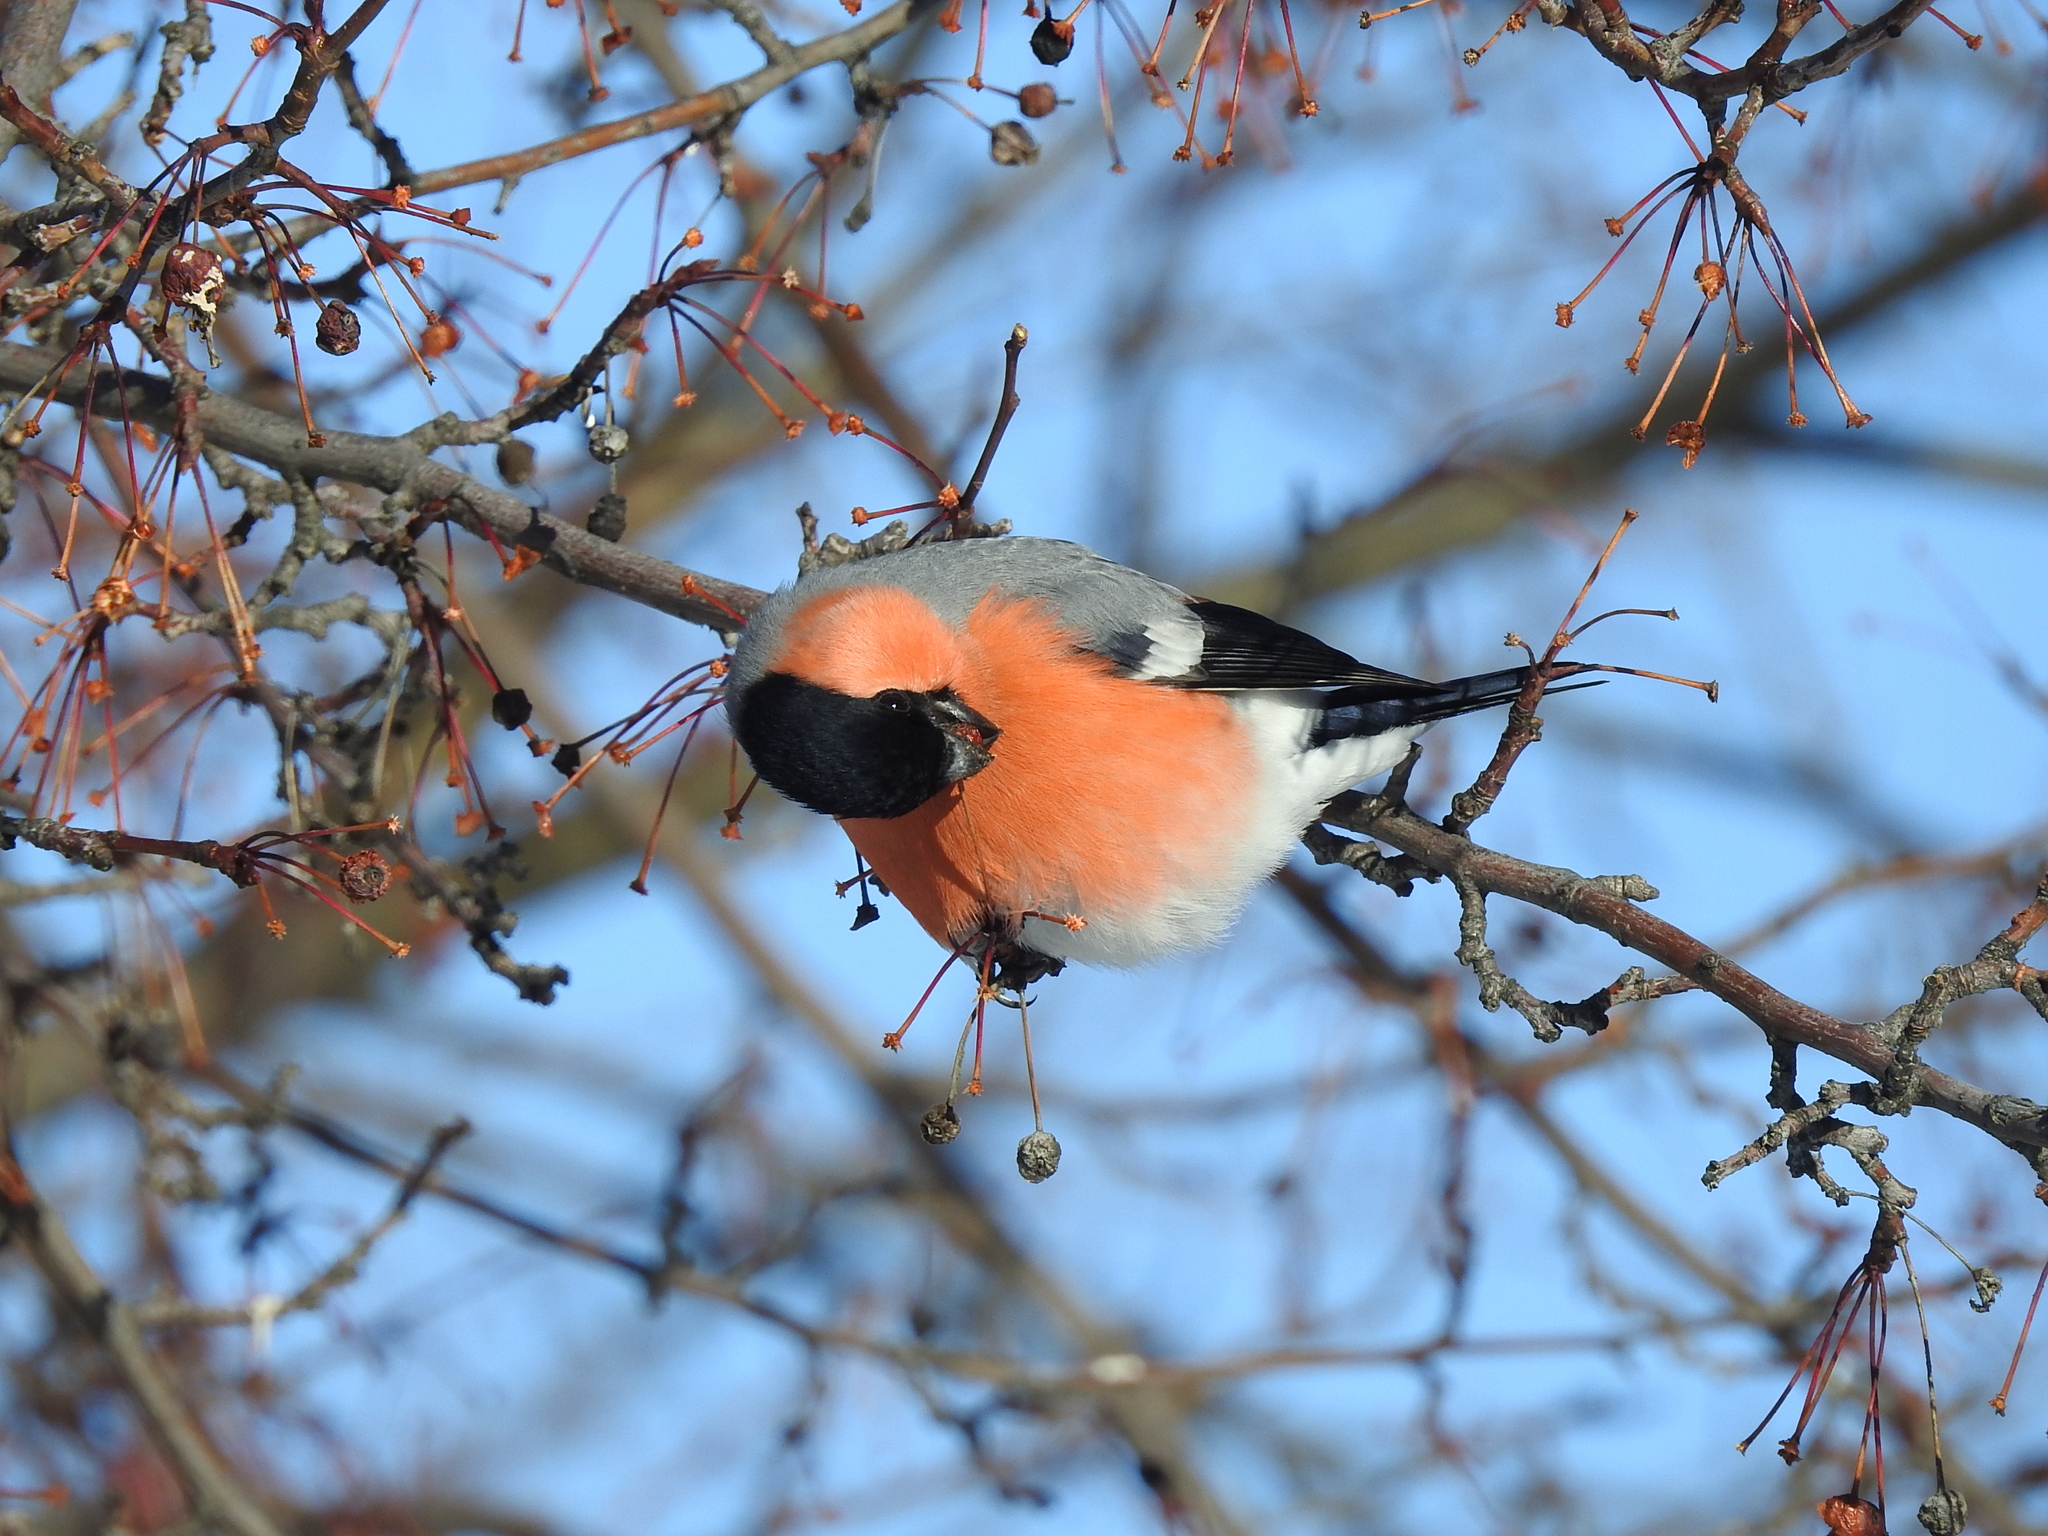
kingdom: Animalia
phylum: Chordata
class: Aves
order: Passeriformes
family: Fringillidae
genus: Pyrrhula
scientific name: Pyrrhula pyrrhula
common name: Eurasian bullfinch
